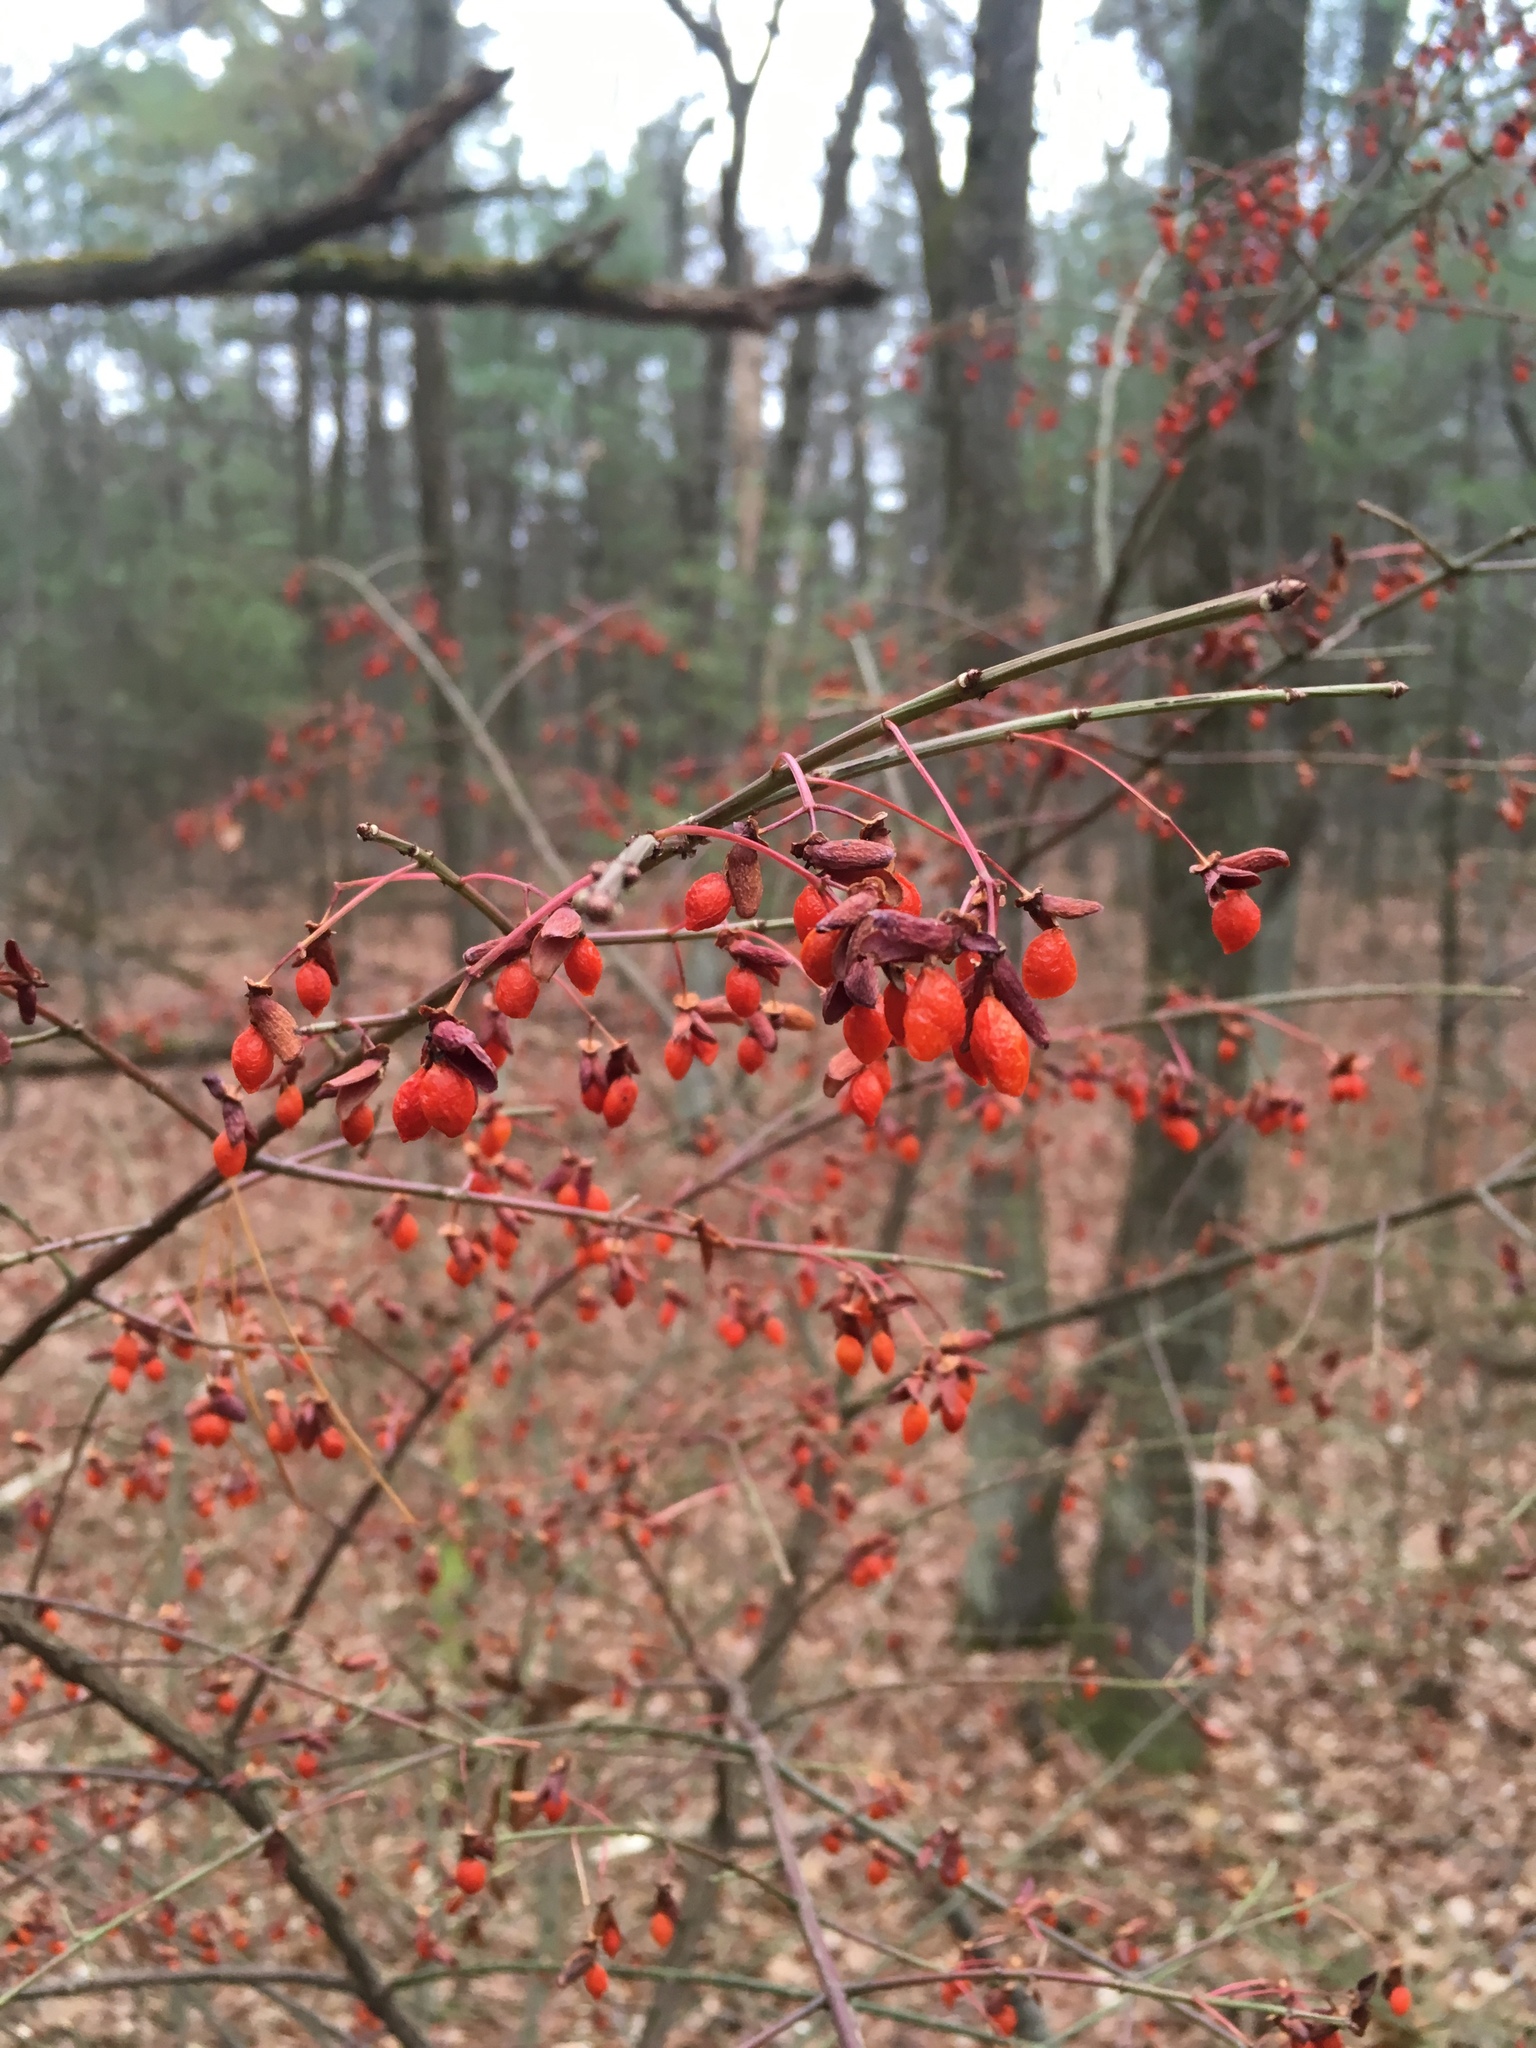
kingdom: Plantae
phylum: Tracheophyta
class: Magnoliopsida
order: Celastrales
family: Celastraceae
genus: Euonymus
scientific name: Euonymus alatus
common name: Winged euonymus
